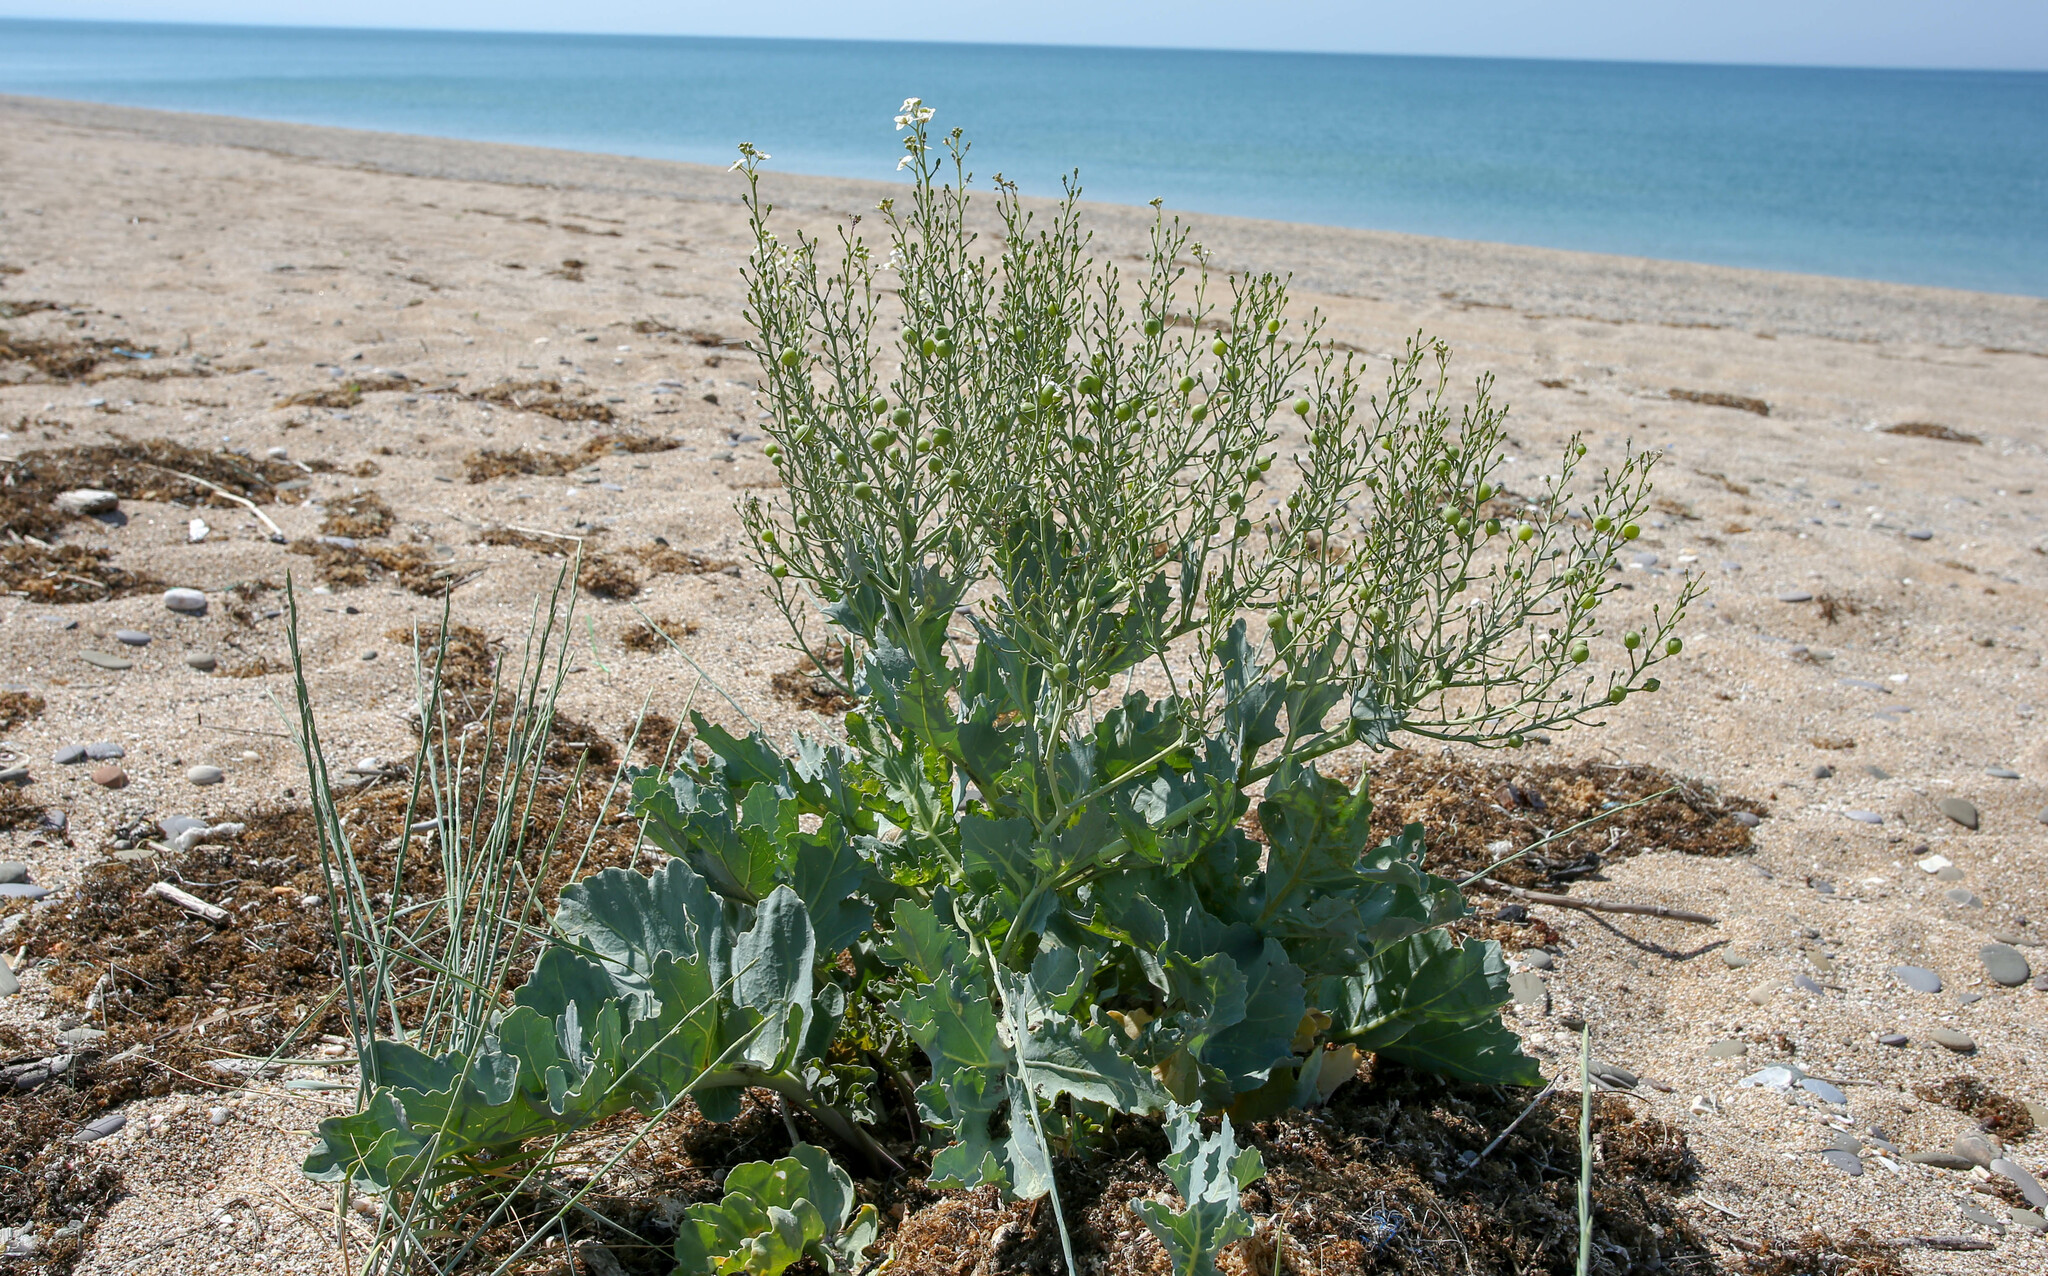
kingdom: Plantae
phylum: Tracheophyta
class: Magnoliopsida
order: Brassicales
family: Brassicaceae
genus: Crambe
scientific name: Crambe maritima
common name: Sea-kale
